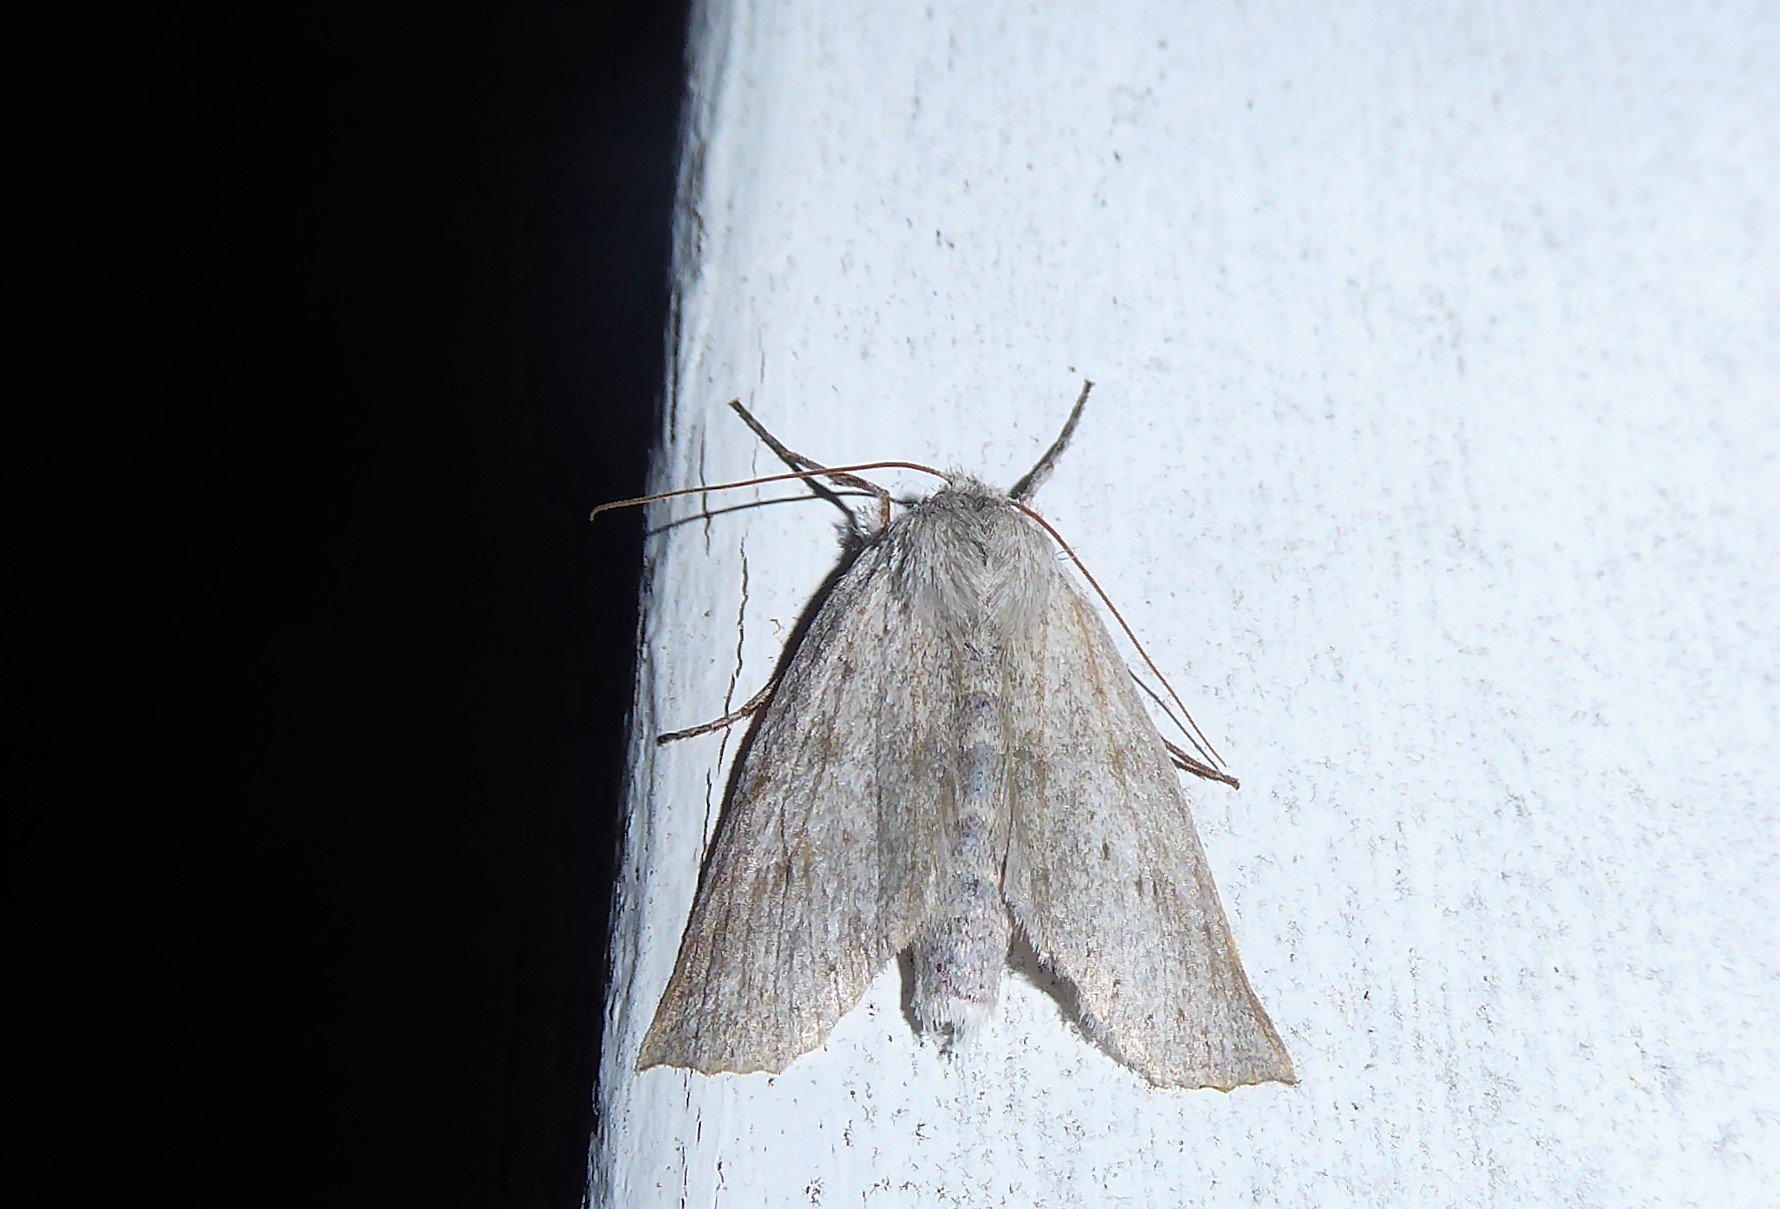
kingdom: Animalia
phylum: Arthropoda
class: Insecta
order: Lepidoptera
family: Geometridae
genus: Declana
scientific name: Declana leptomera
